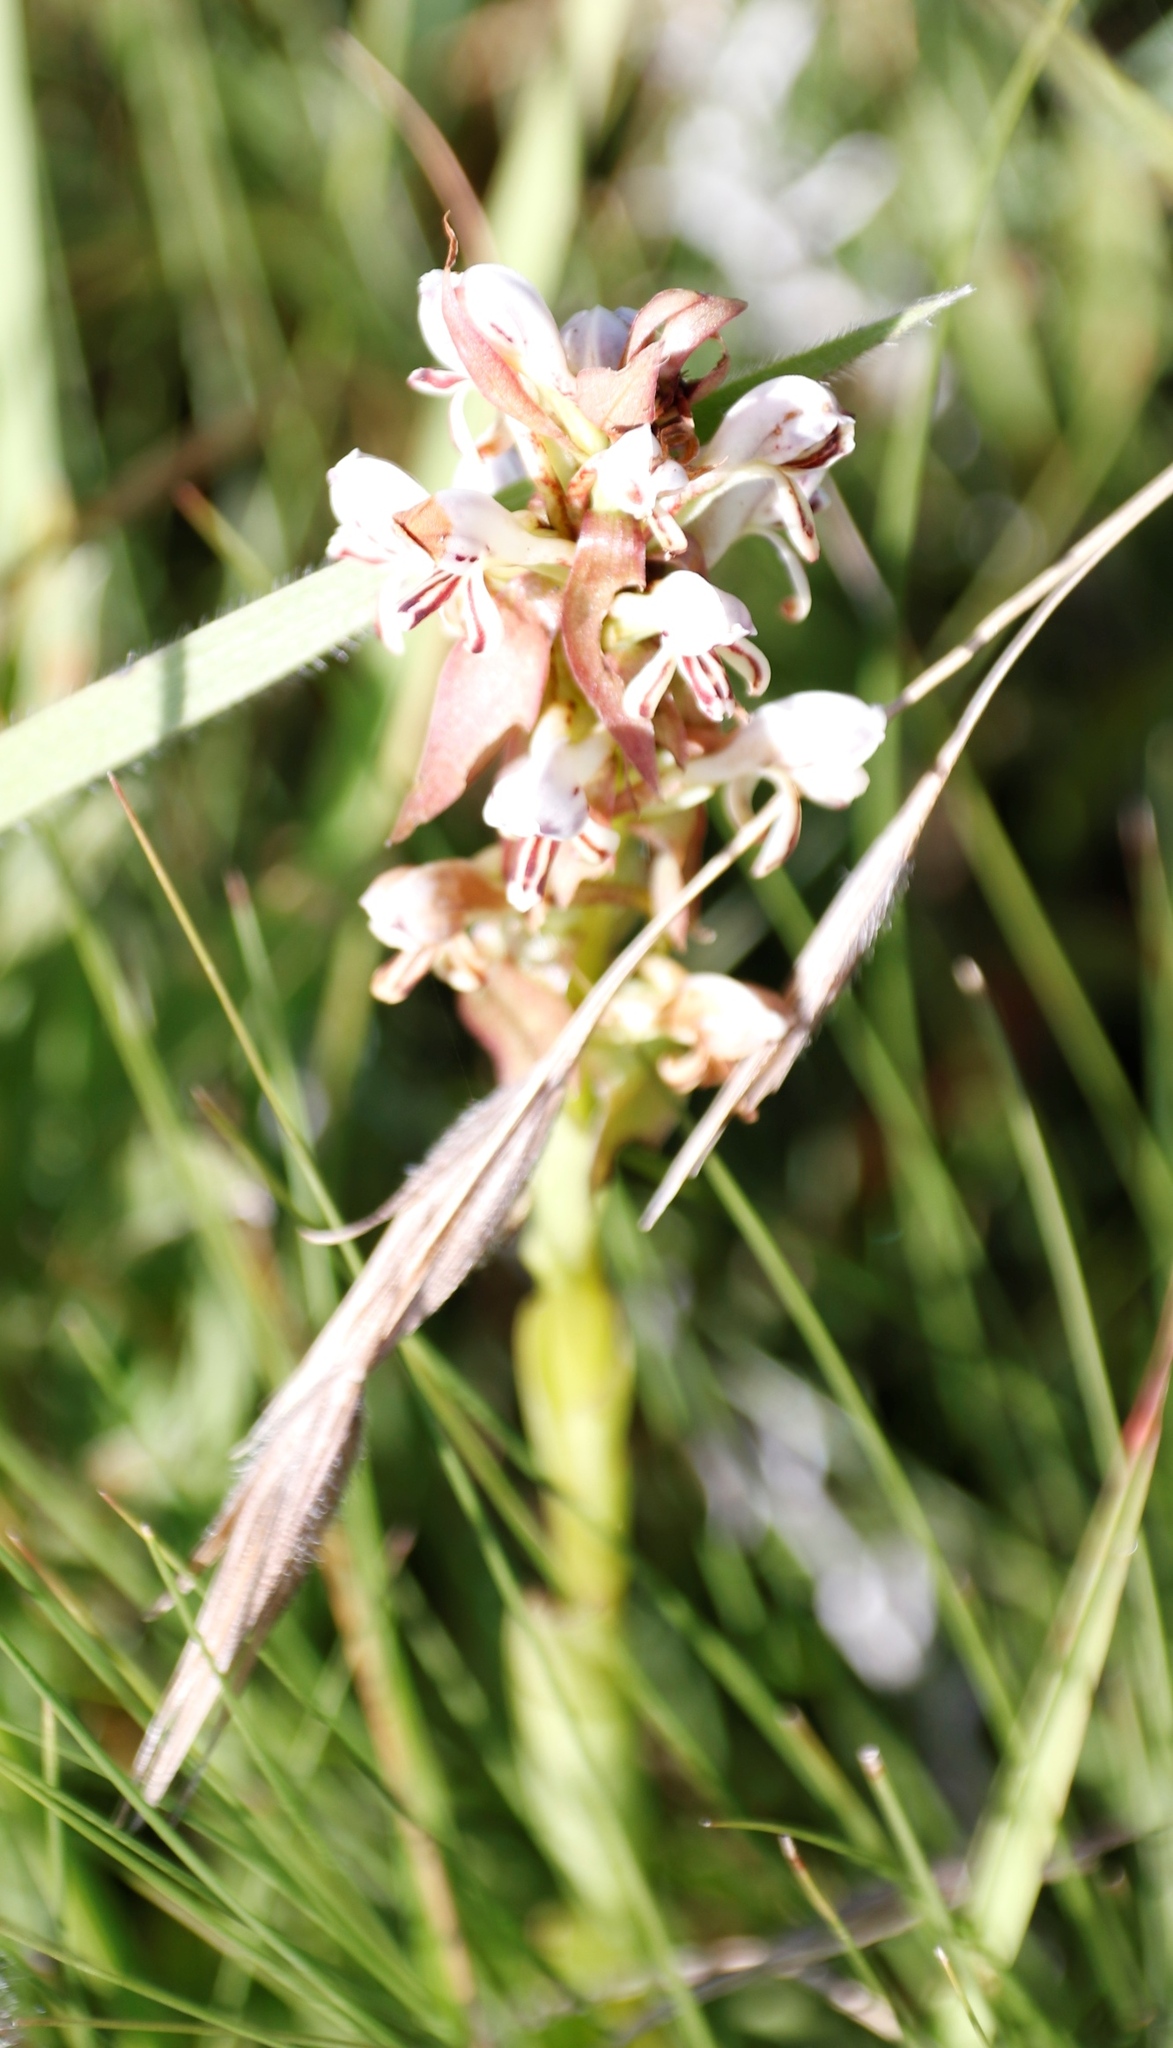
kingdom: Plantae
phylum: Tracheophyta
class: Liliopsida
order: Asparagales
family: Orchidaceae
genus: Satyrium
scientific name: Satyrium cristatum
